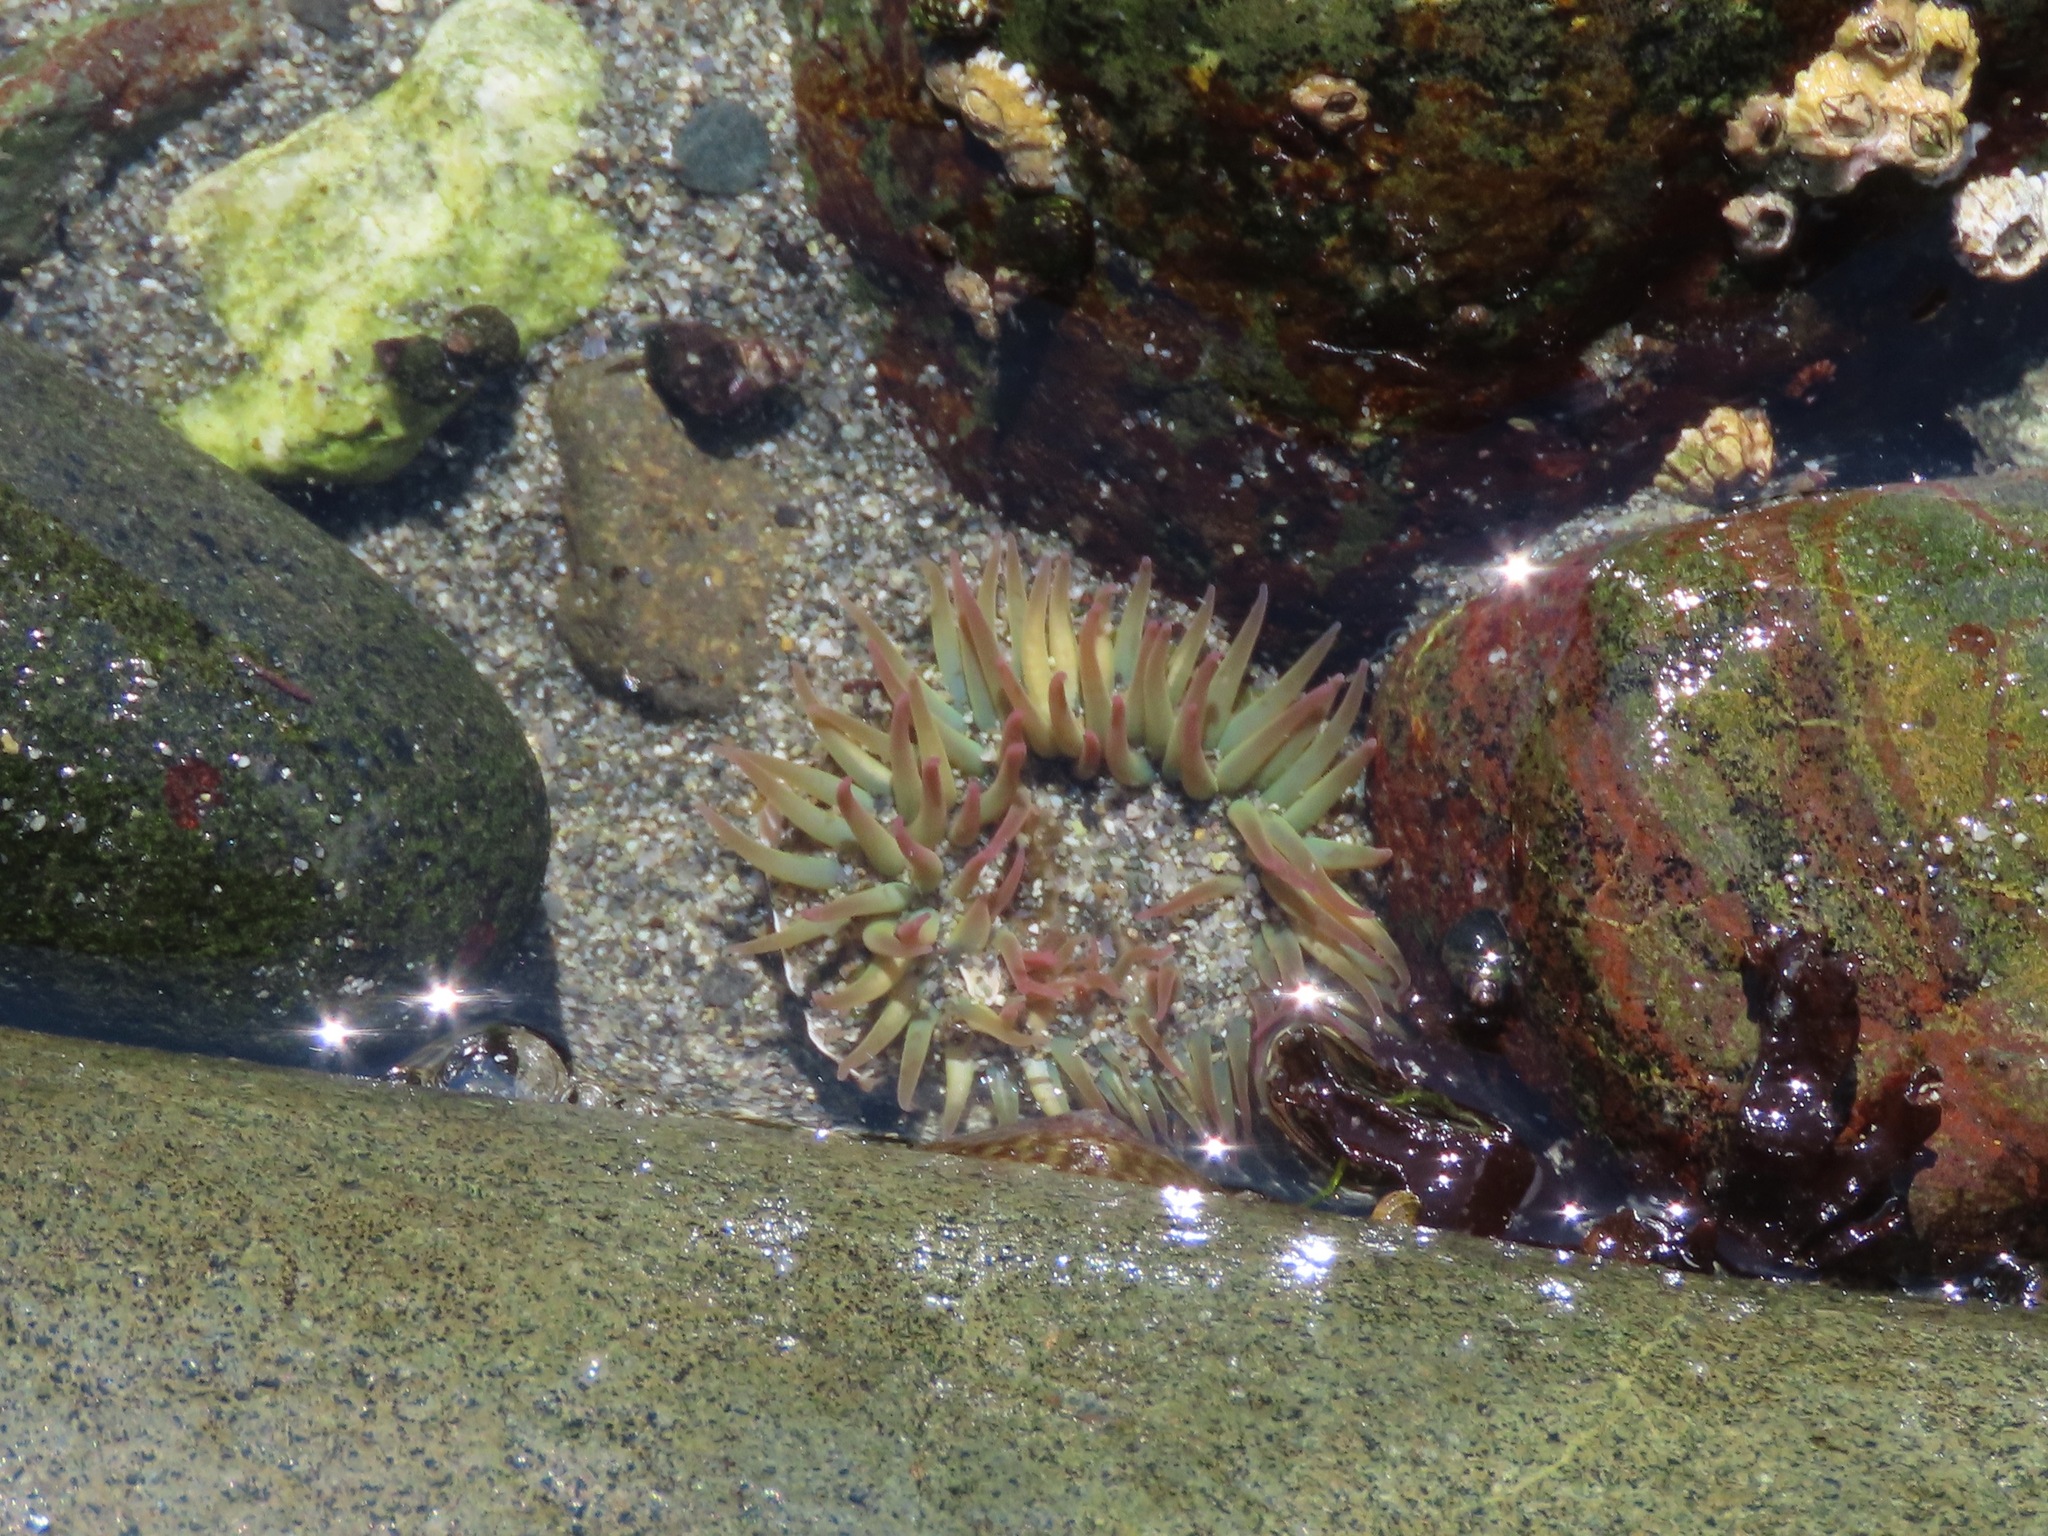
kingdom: Animalia
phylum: Cnidaria
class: Anthozoa
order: Actiniaria
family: Actiniidae
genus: Anthopleura
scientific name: Anthopleura elegantissima
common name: Clonal anemone
